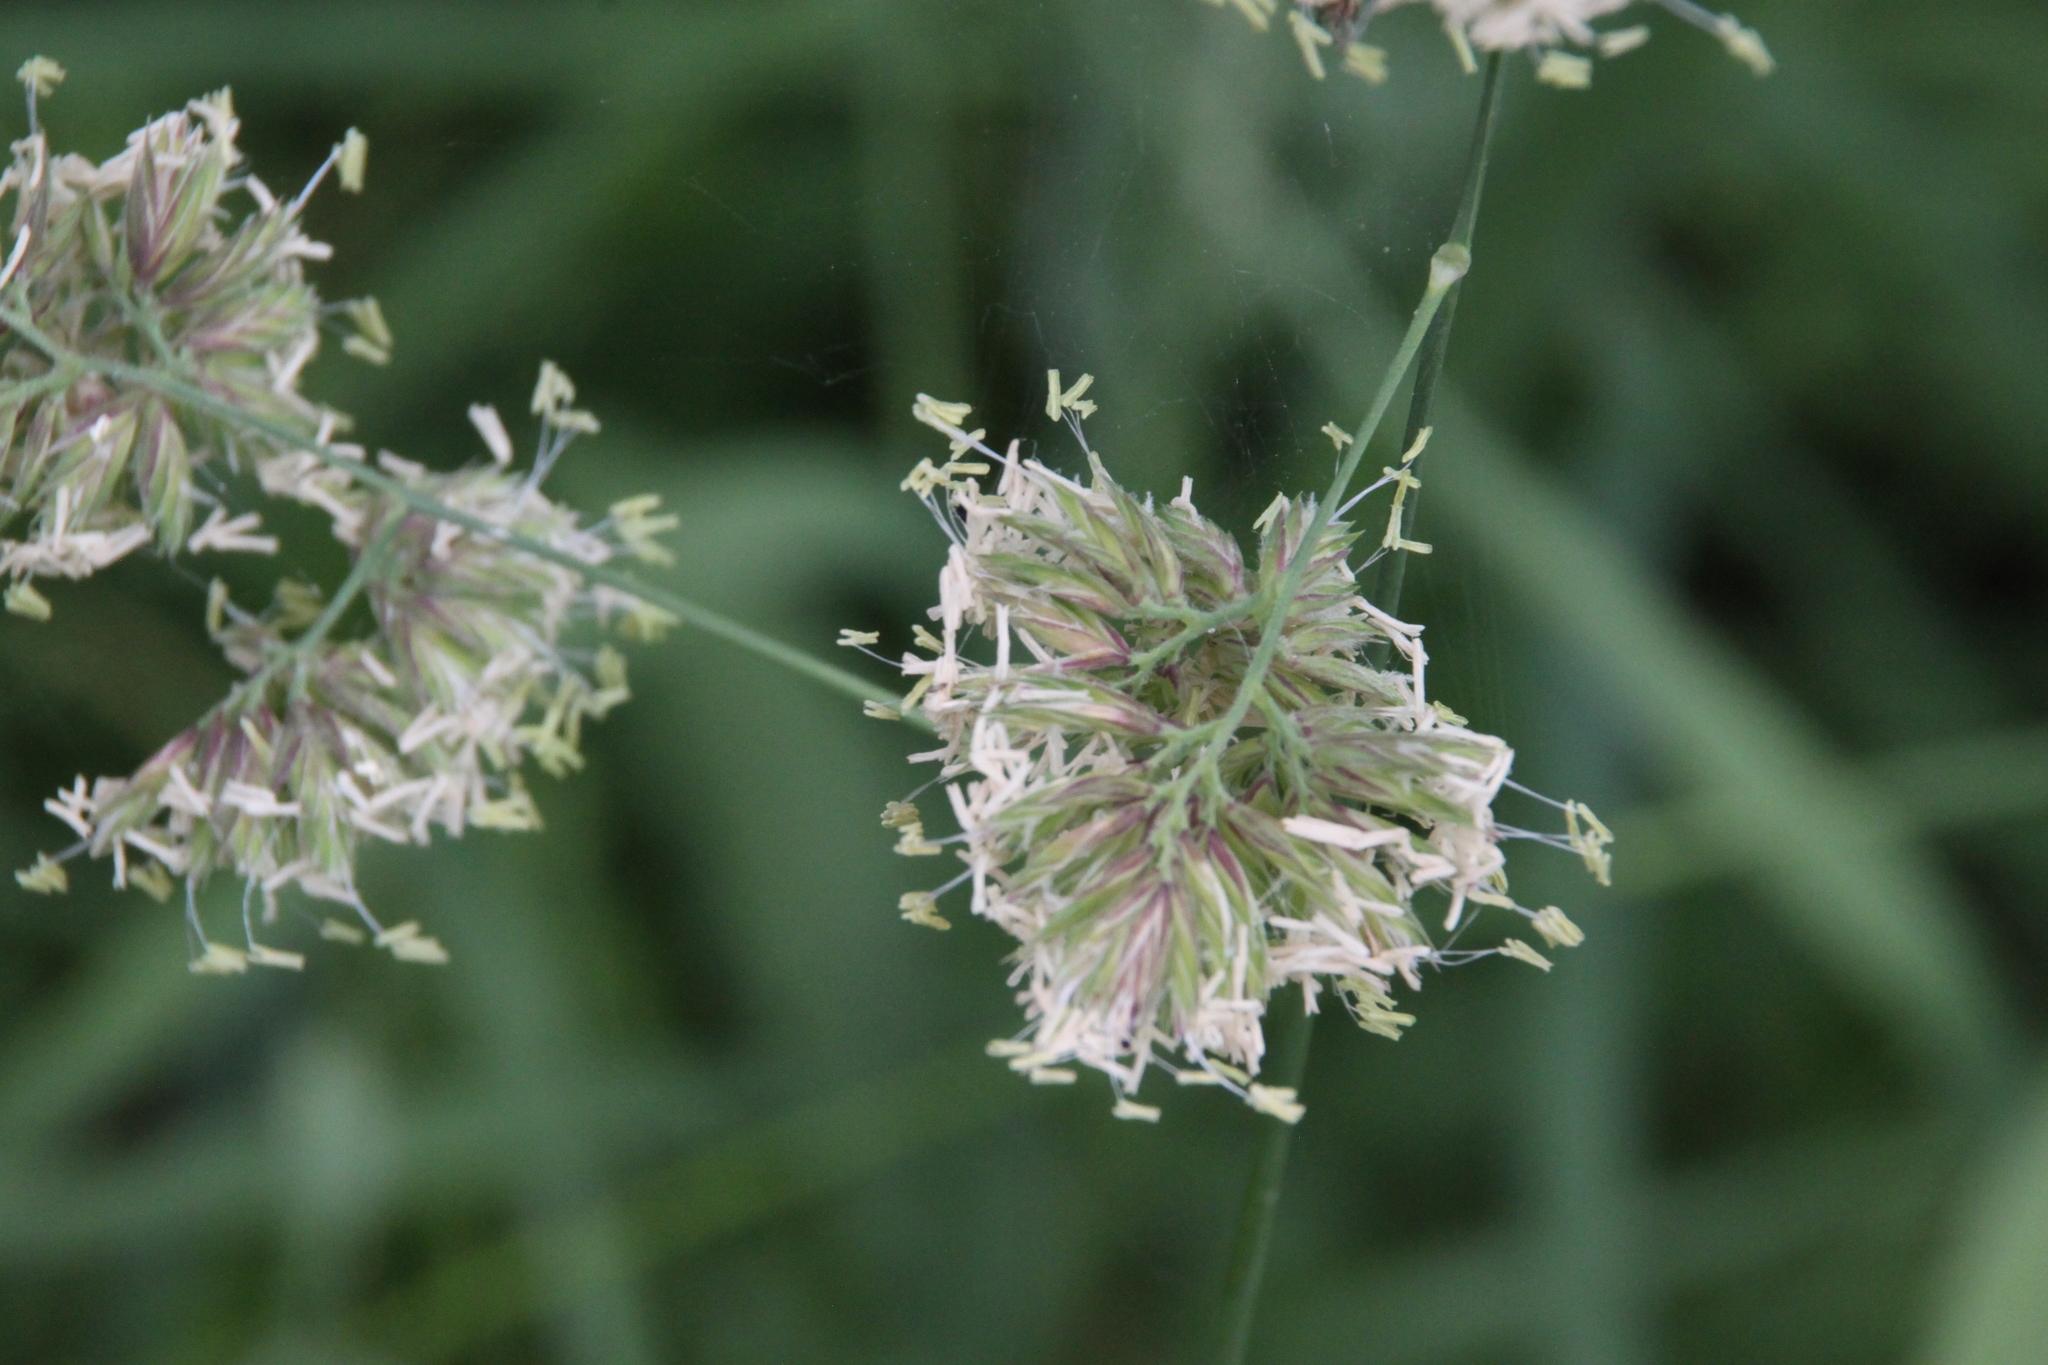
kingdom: Plantae
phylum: Tracheophyta
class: Liliopsida
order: Poales
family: Poaceae
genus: Dactylis
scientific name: Dactylis glomerata
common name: Orchardgrass
